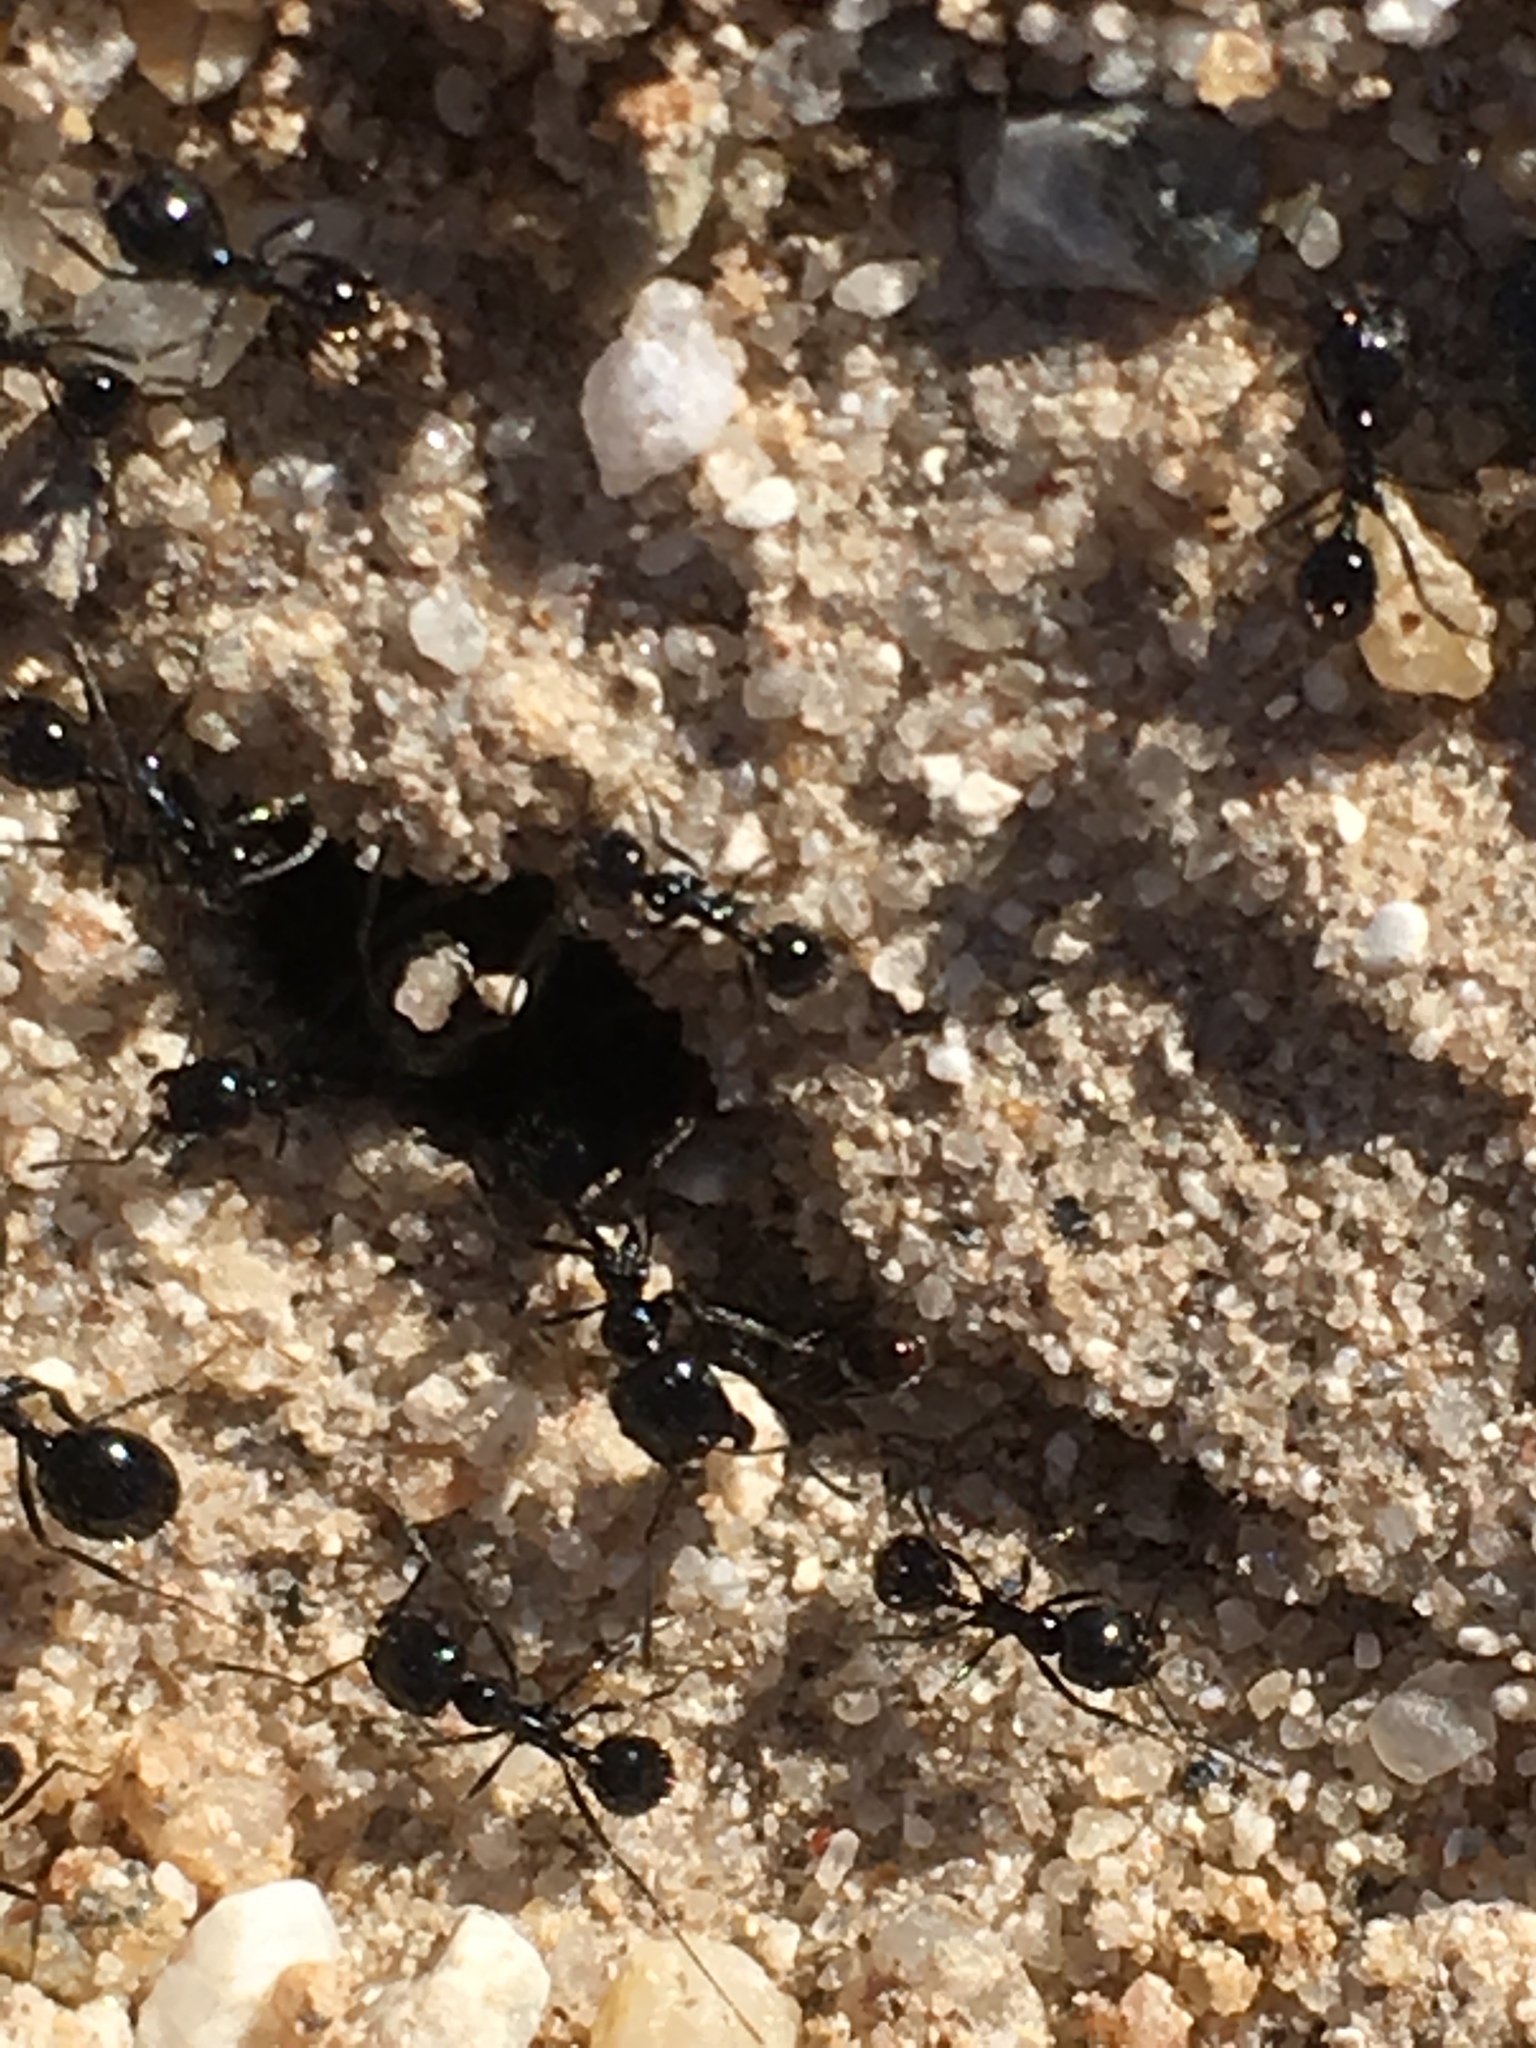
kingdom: Animalia
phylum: Arthropoda
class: Insecta
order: Hymenoptera
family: Formicidae
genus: Messor
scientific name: Messor pergandei
